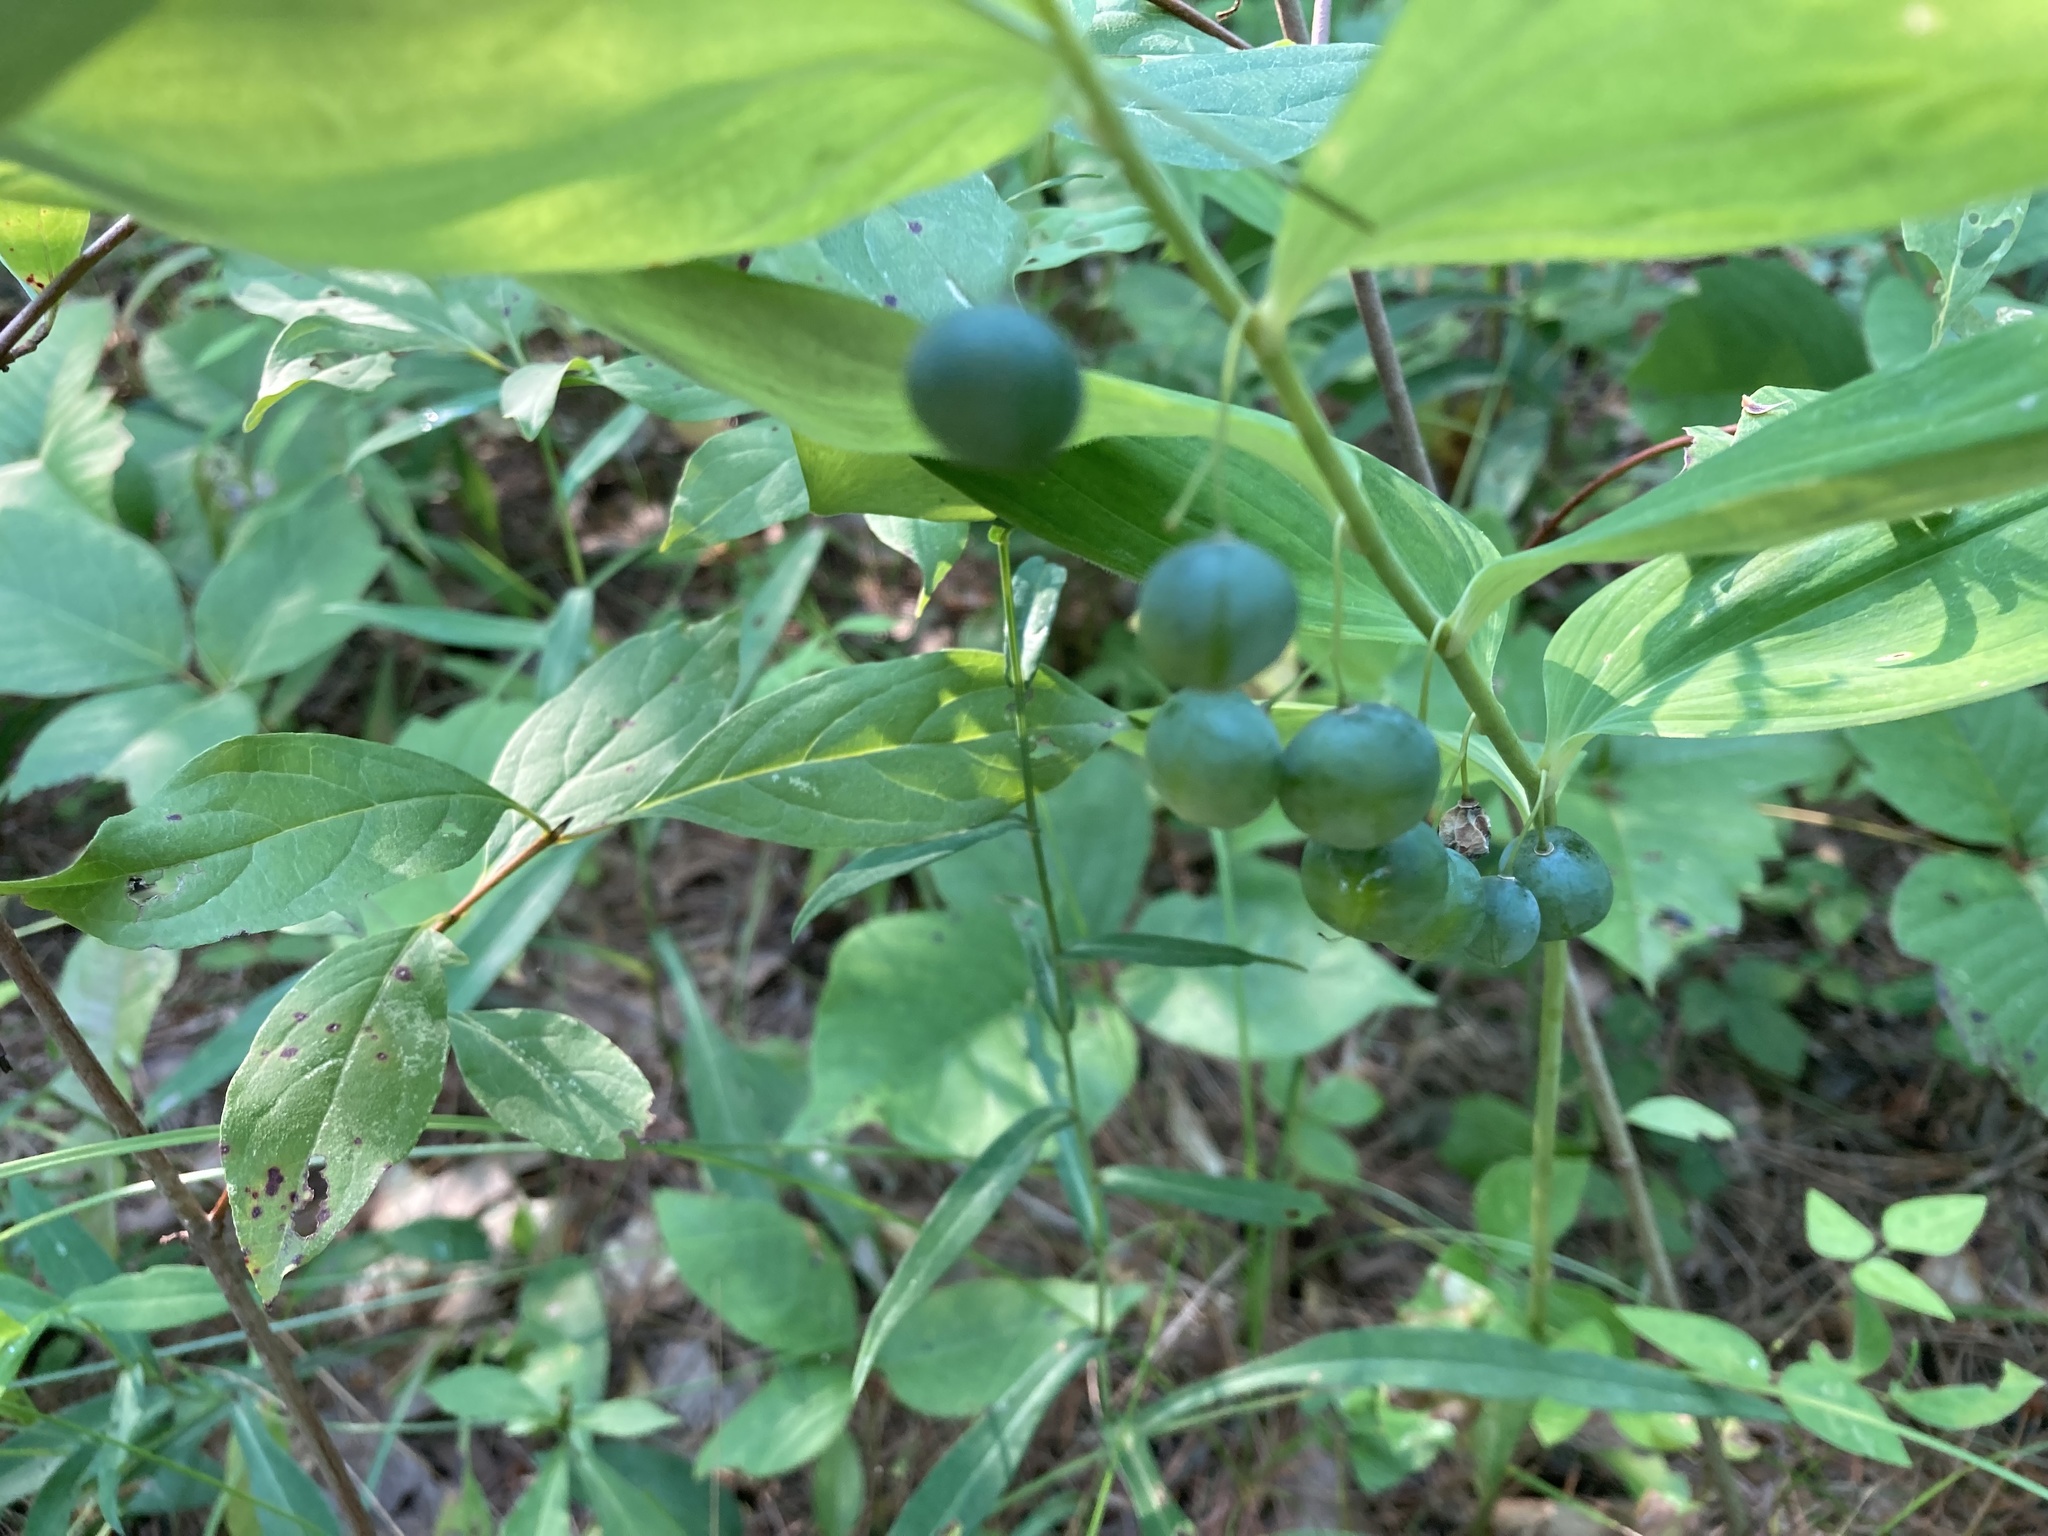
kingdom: Plantae
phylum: Tracheophyta
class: Liliopsida
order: Asparagales
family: Asparagaceae
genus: Polygonatum
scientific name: Polygonatum pubescens
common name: Downy solomon's seal
